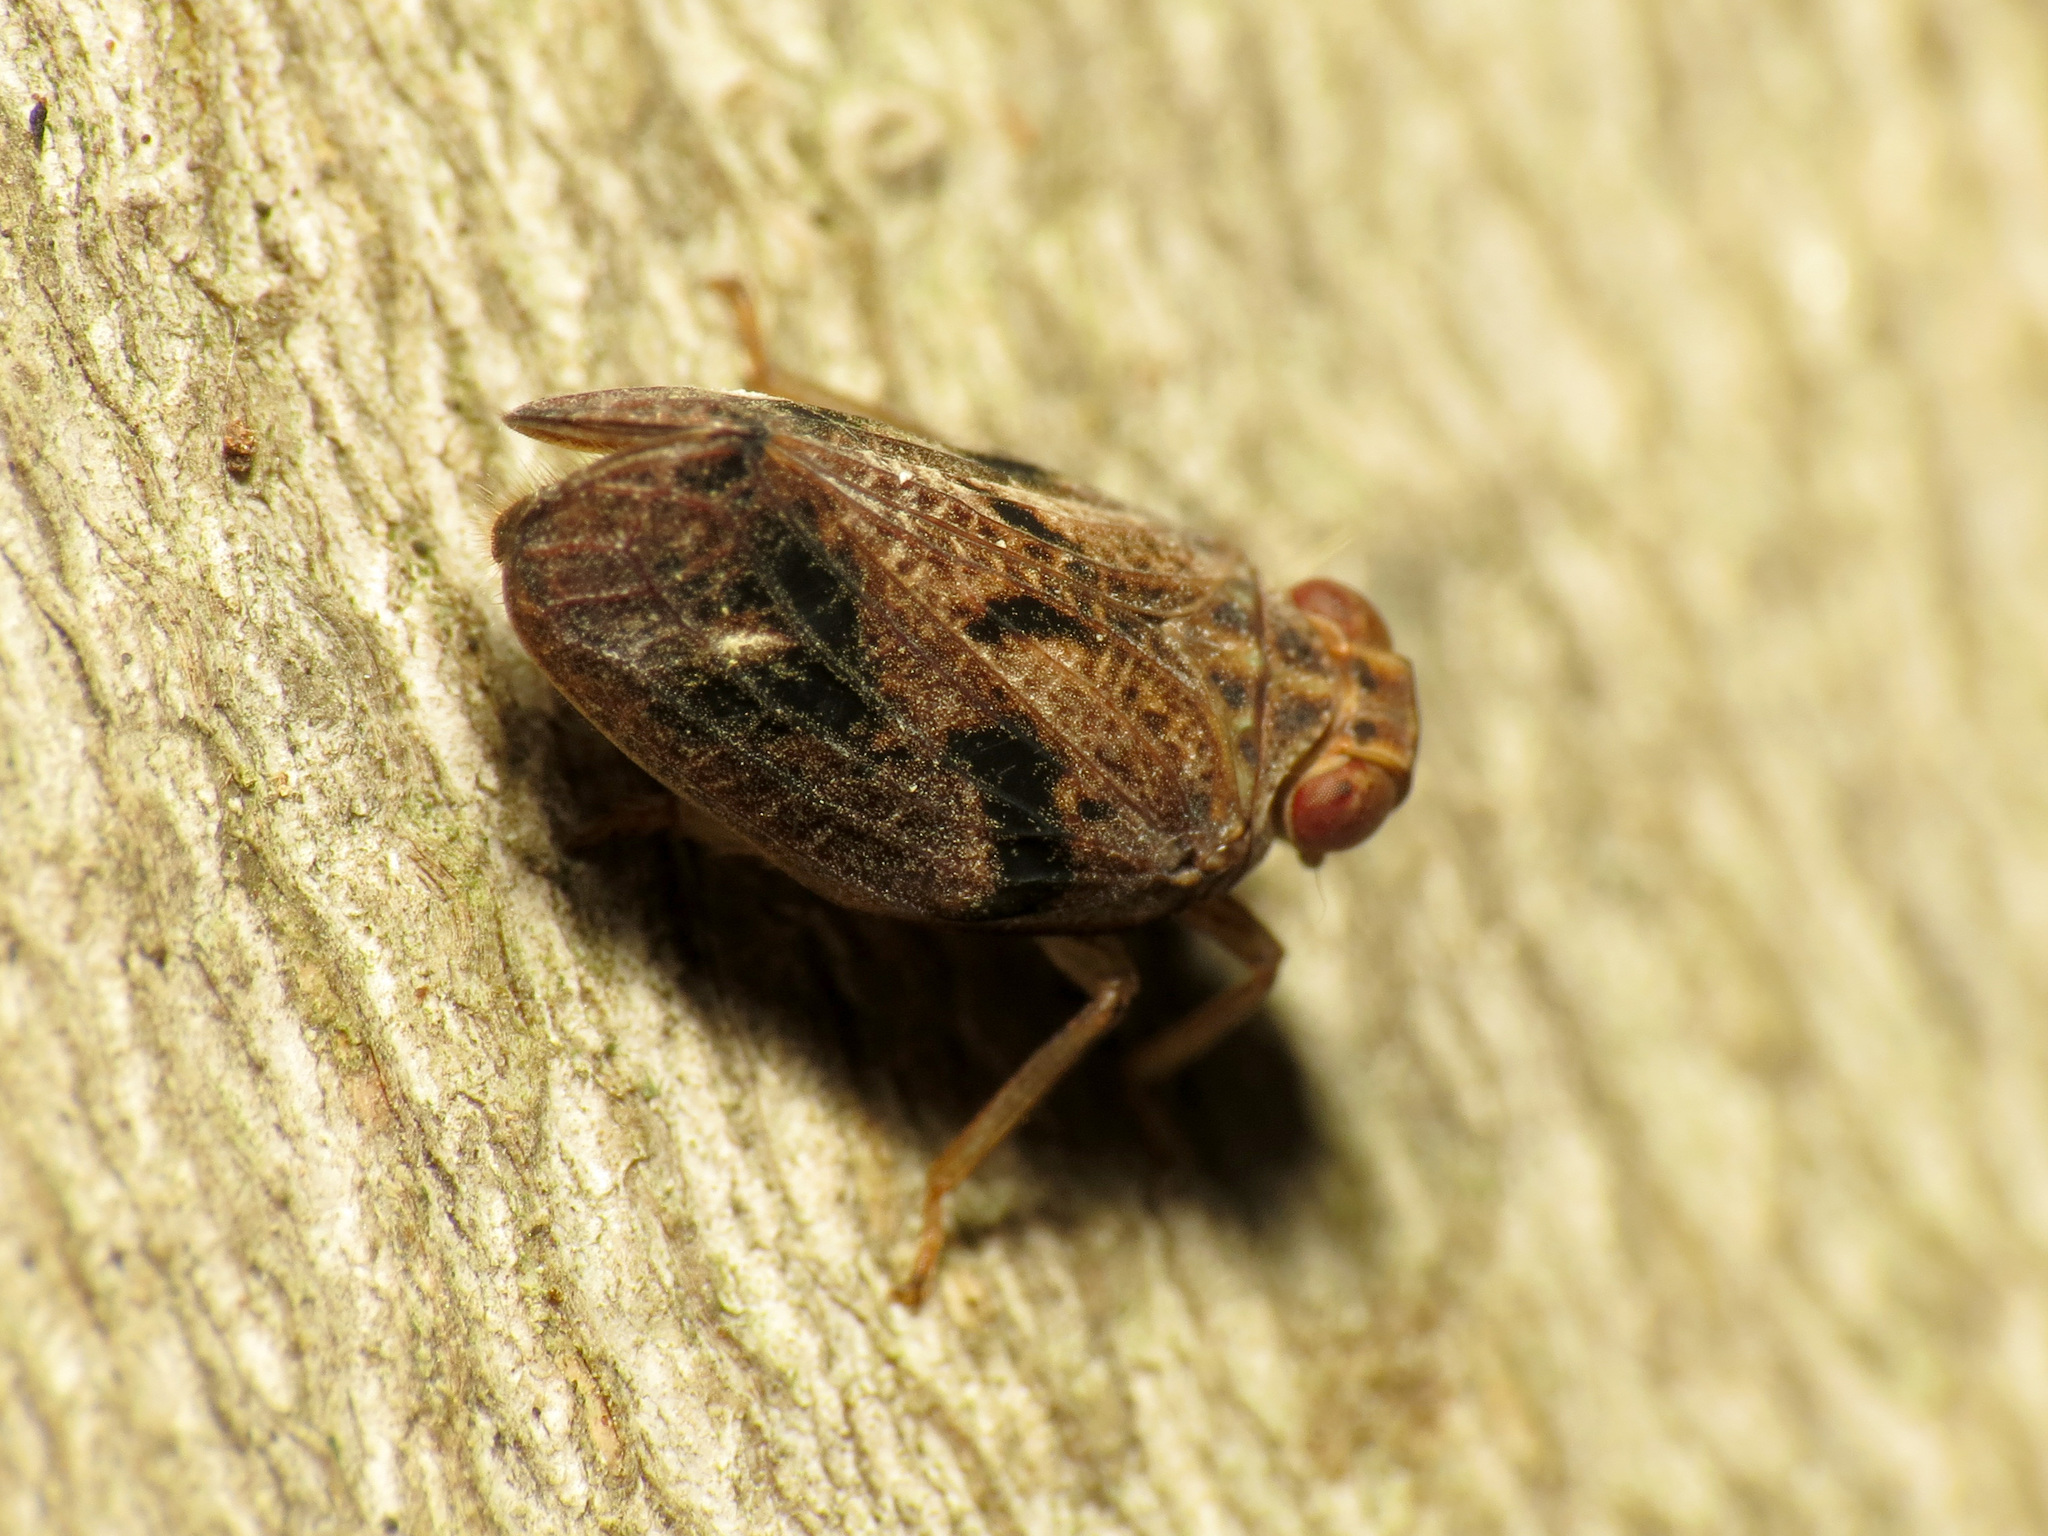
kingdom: Animalia
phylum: Arthropoda
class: Insecta
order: Hemiptera
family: Issidae
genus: Thionia
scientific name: Thionia bullata
